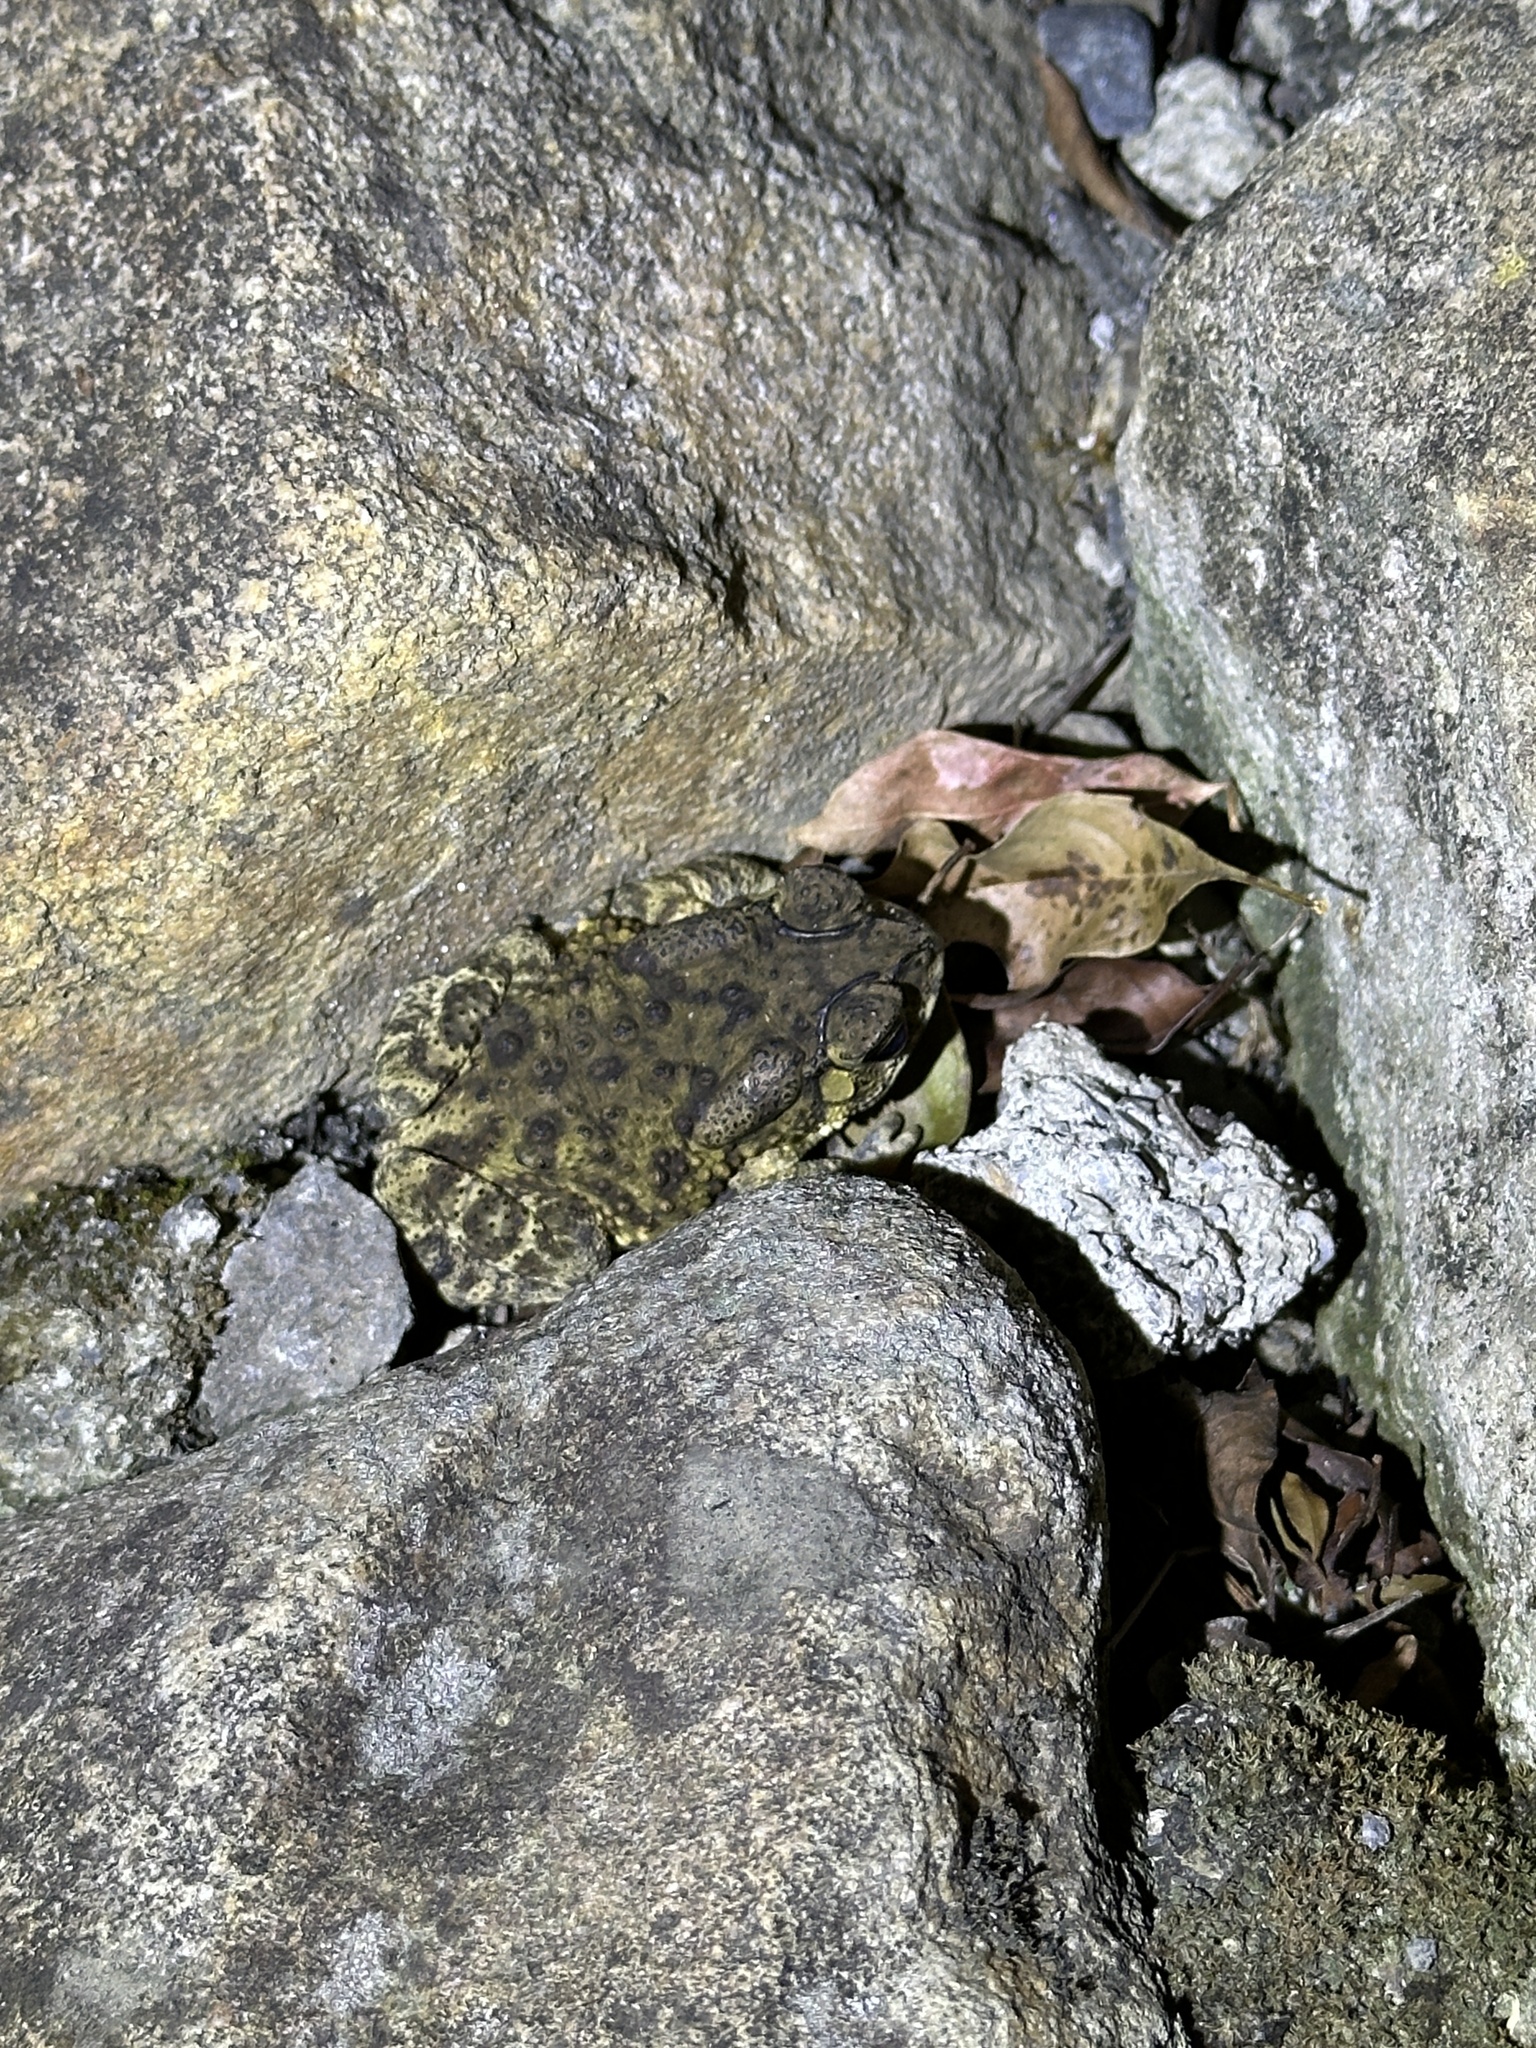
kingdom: Animalia
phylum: Chordata
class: Amphibia
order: Anura
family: Bufonidae
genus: Duttaphrynus
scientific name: Duttaphrynus melanostictus
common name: Common sunda toad
